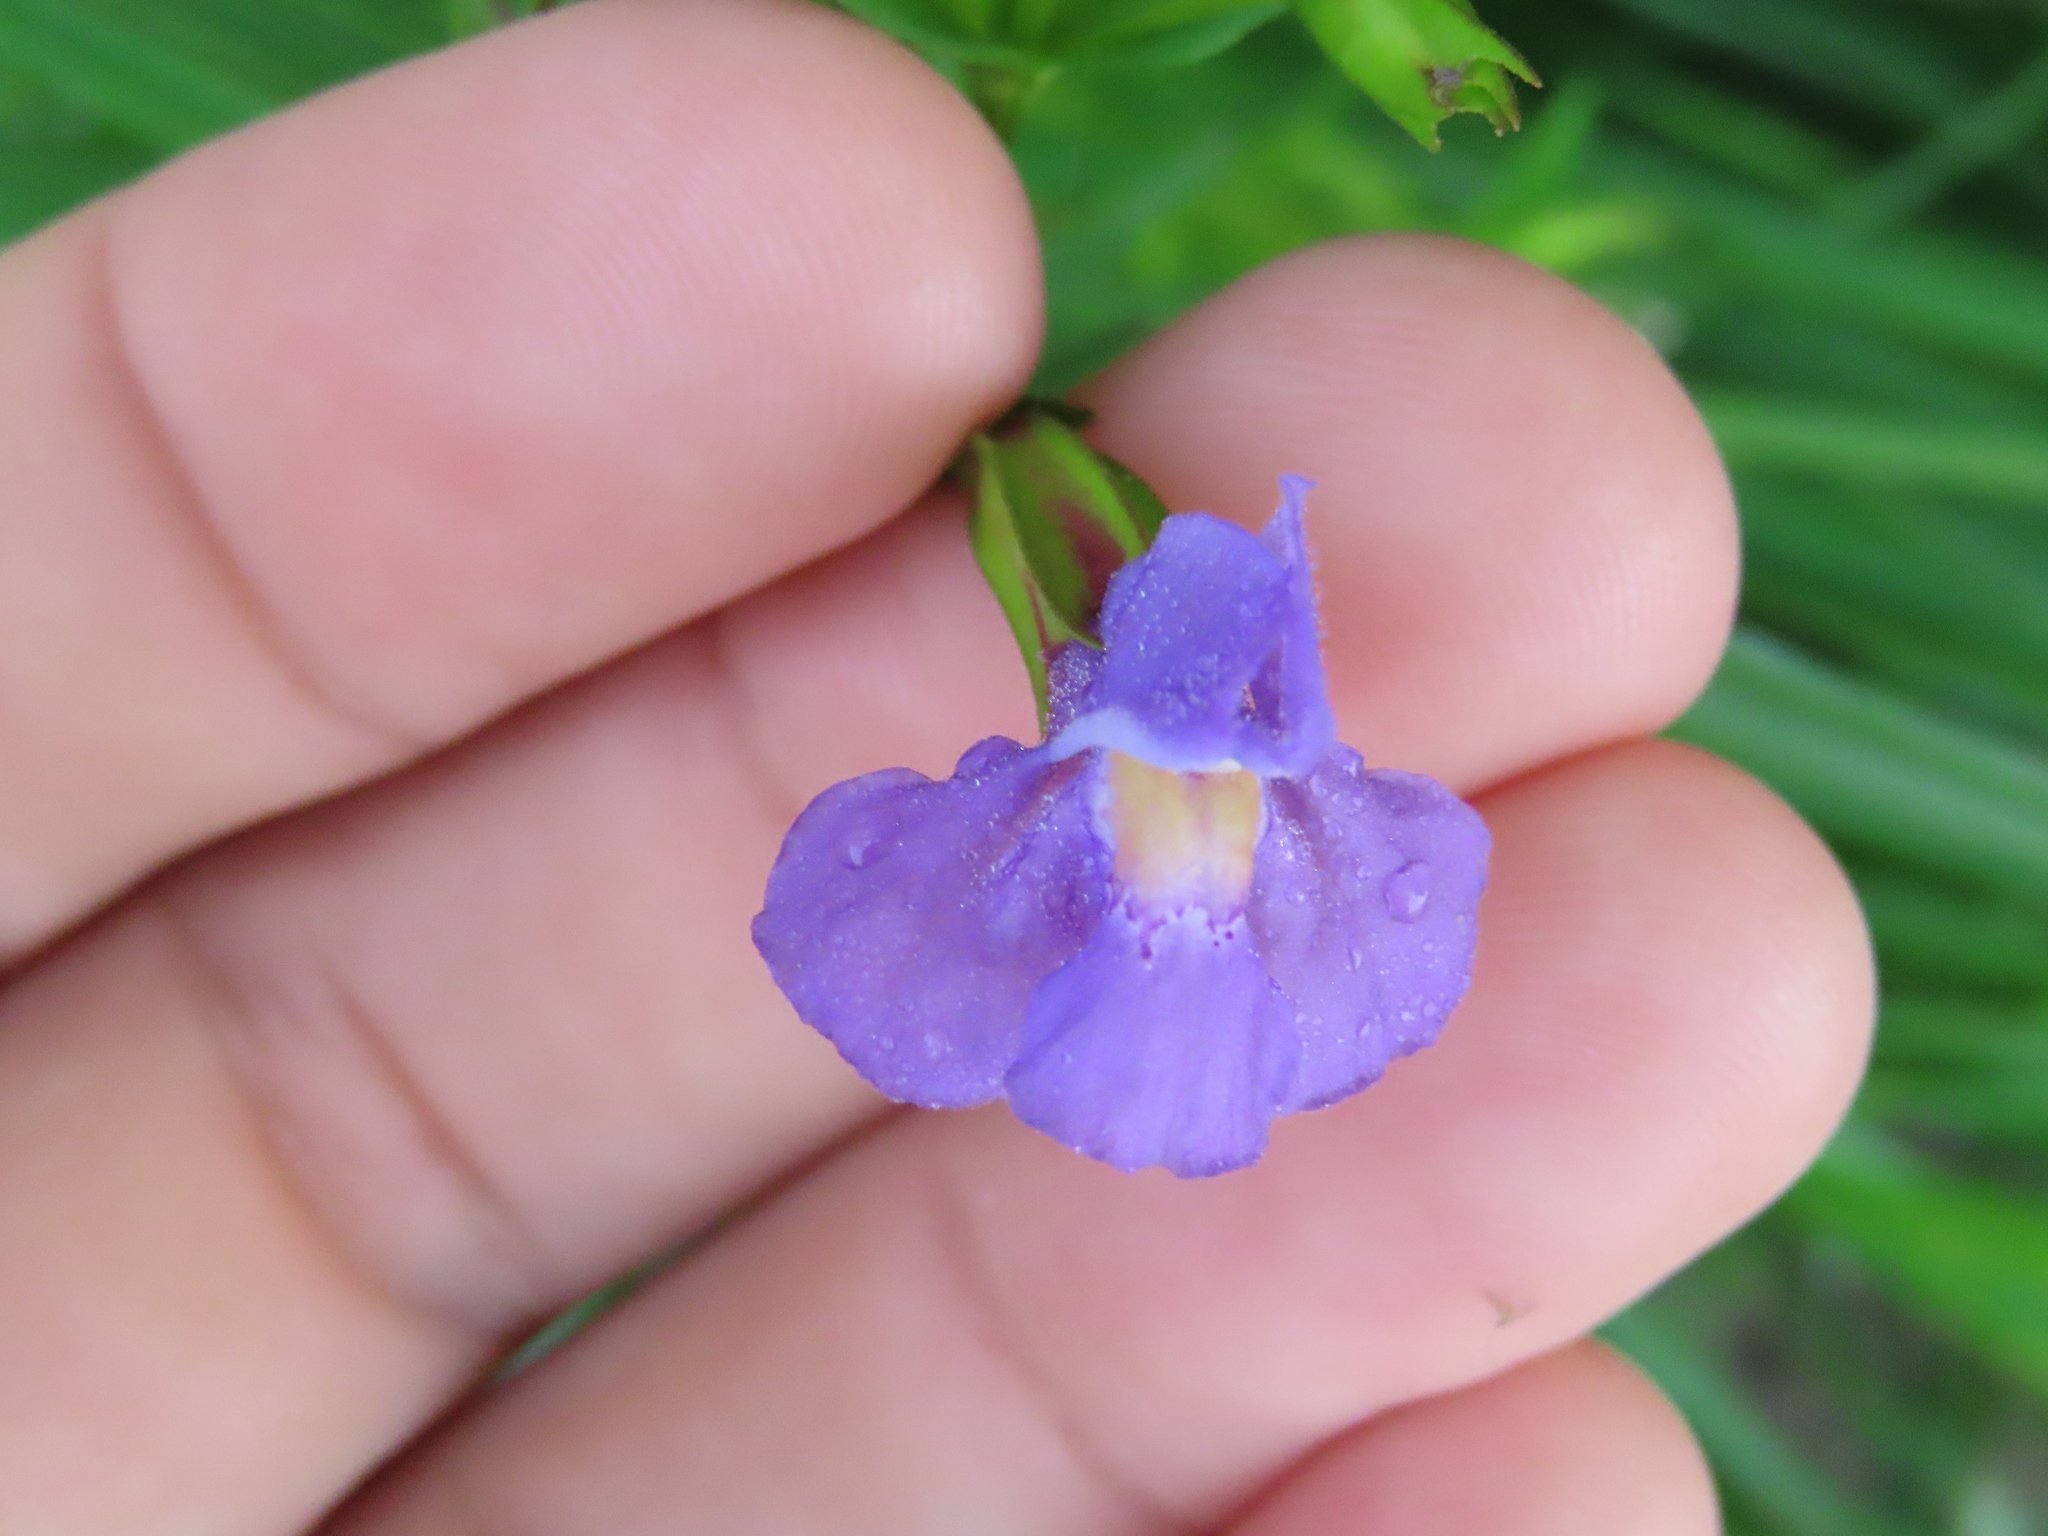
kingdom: Plantae
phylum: Tracheophyta
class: Magnoliopsida
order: Lamiales
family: Phrymaceae
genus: Mimulus
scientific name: Mimulus ringens
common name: Allegheny monkeyflower
